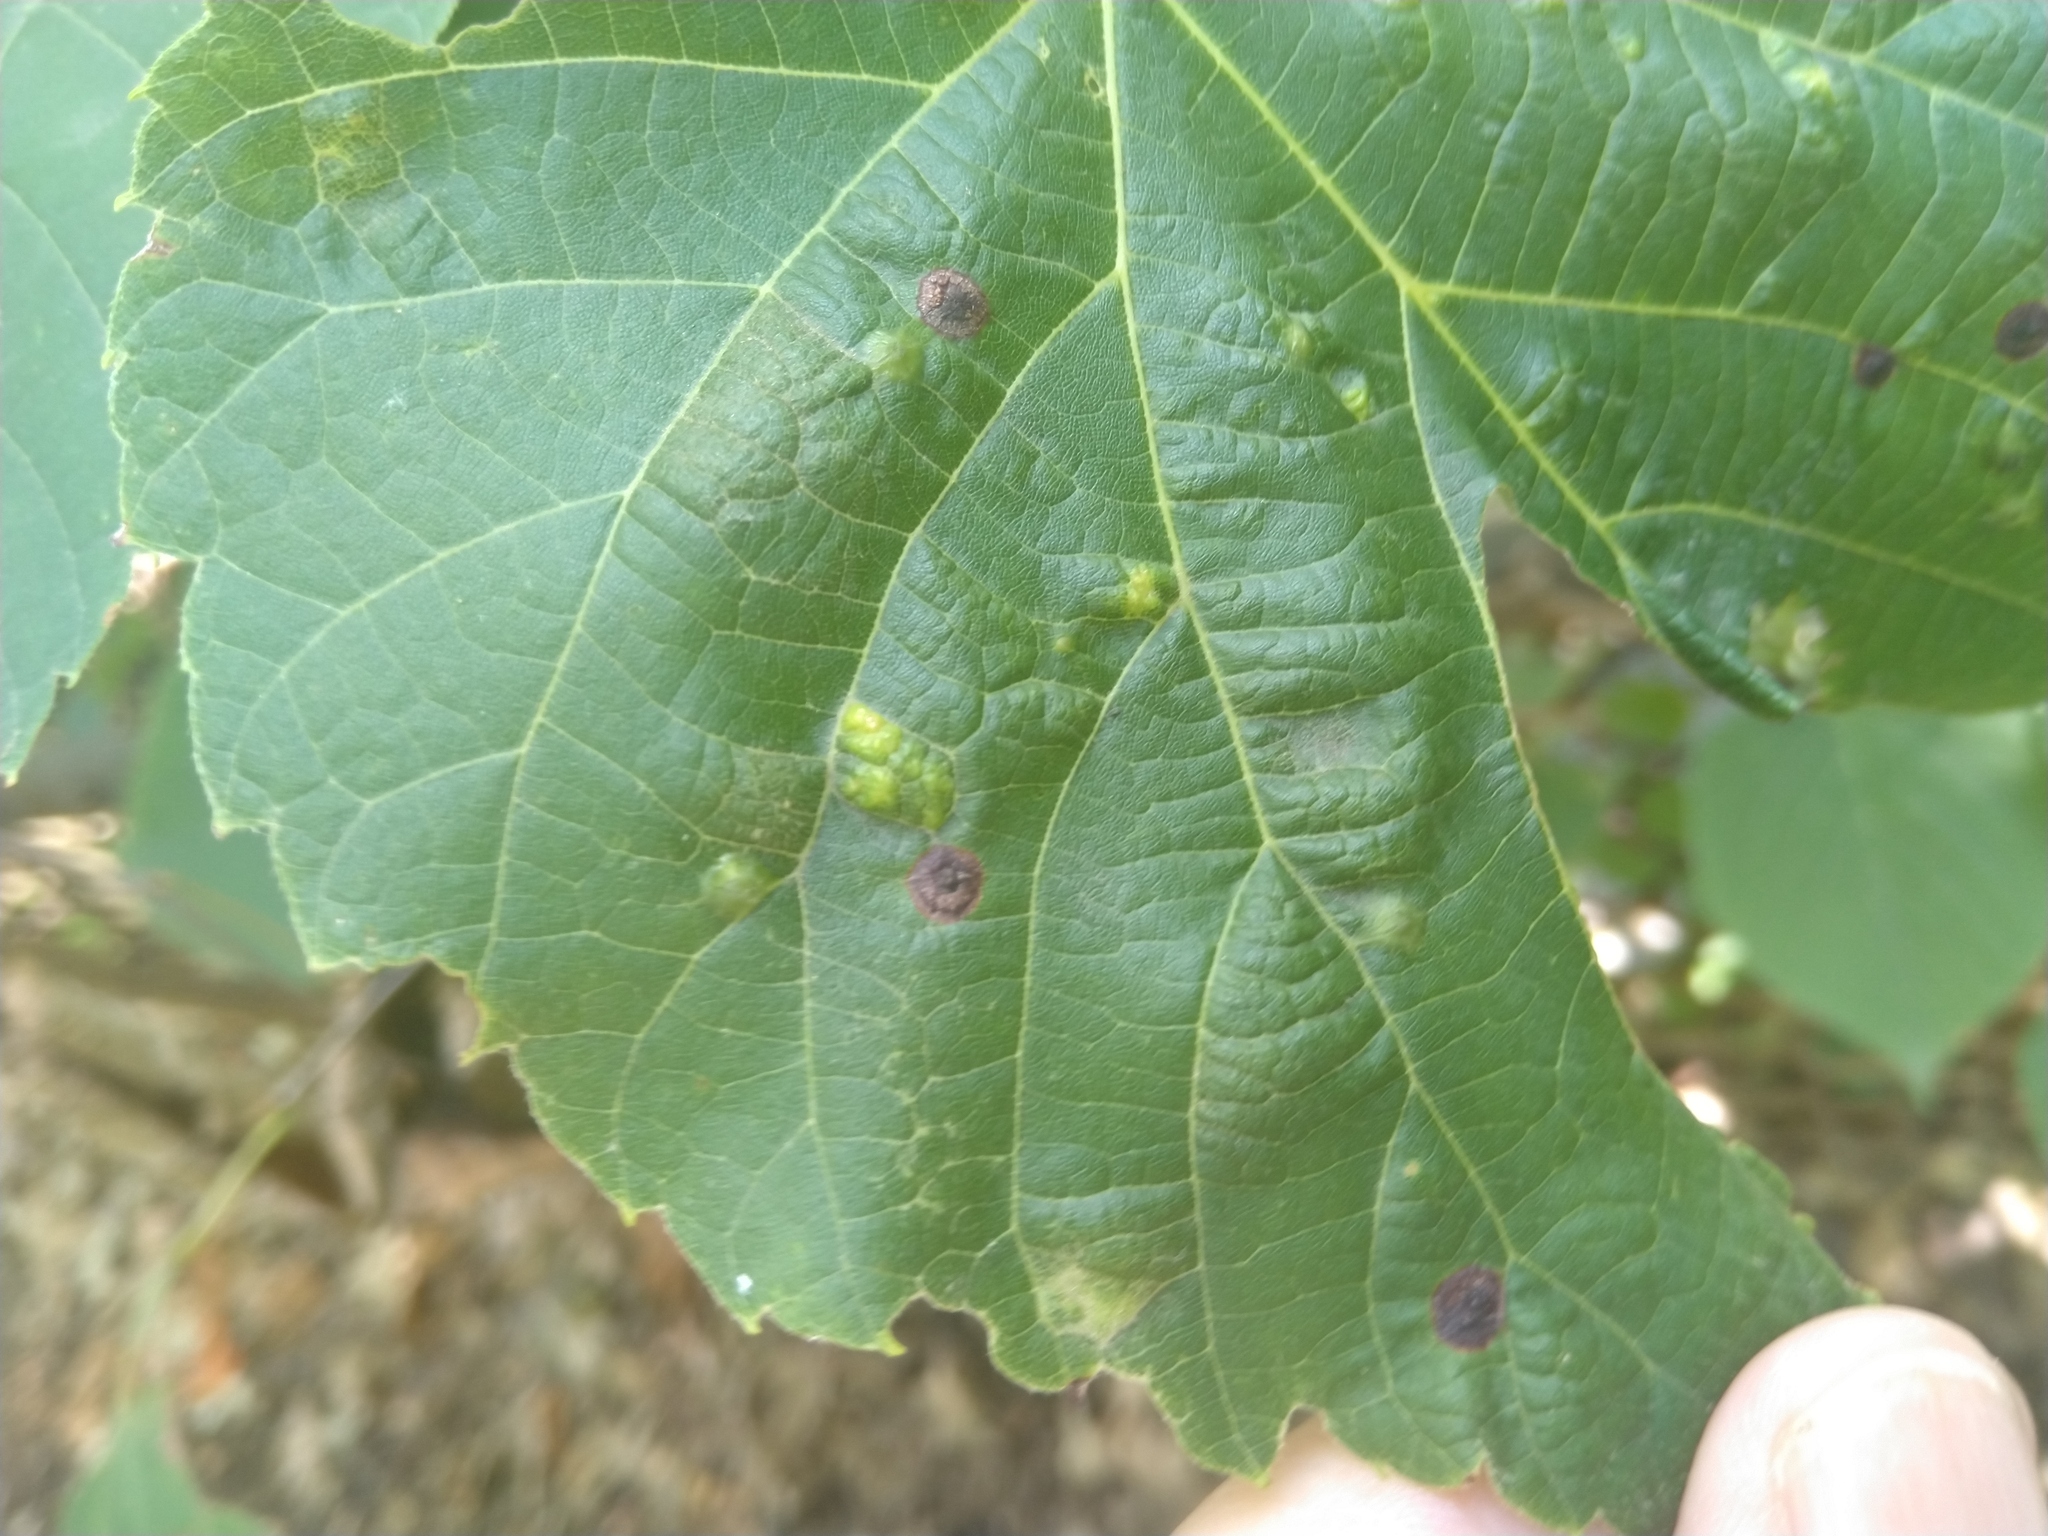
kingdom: Animalia
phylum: Arthropoda
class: Insecta
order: Diptera
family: Cecidomyiidae
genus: Contarinia
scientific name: Contarinia verrucicola
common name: Linden wart gall midge
